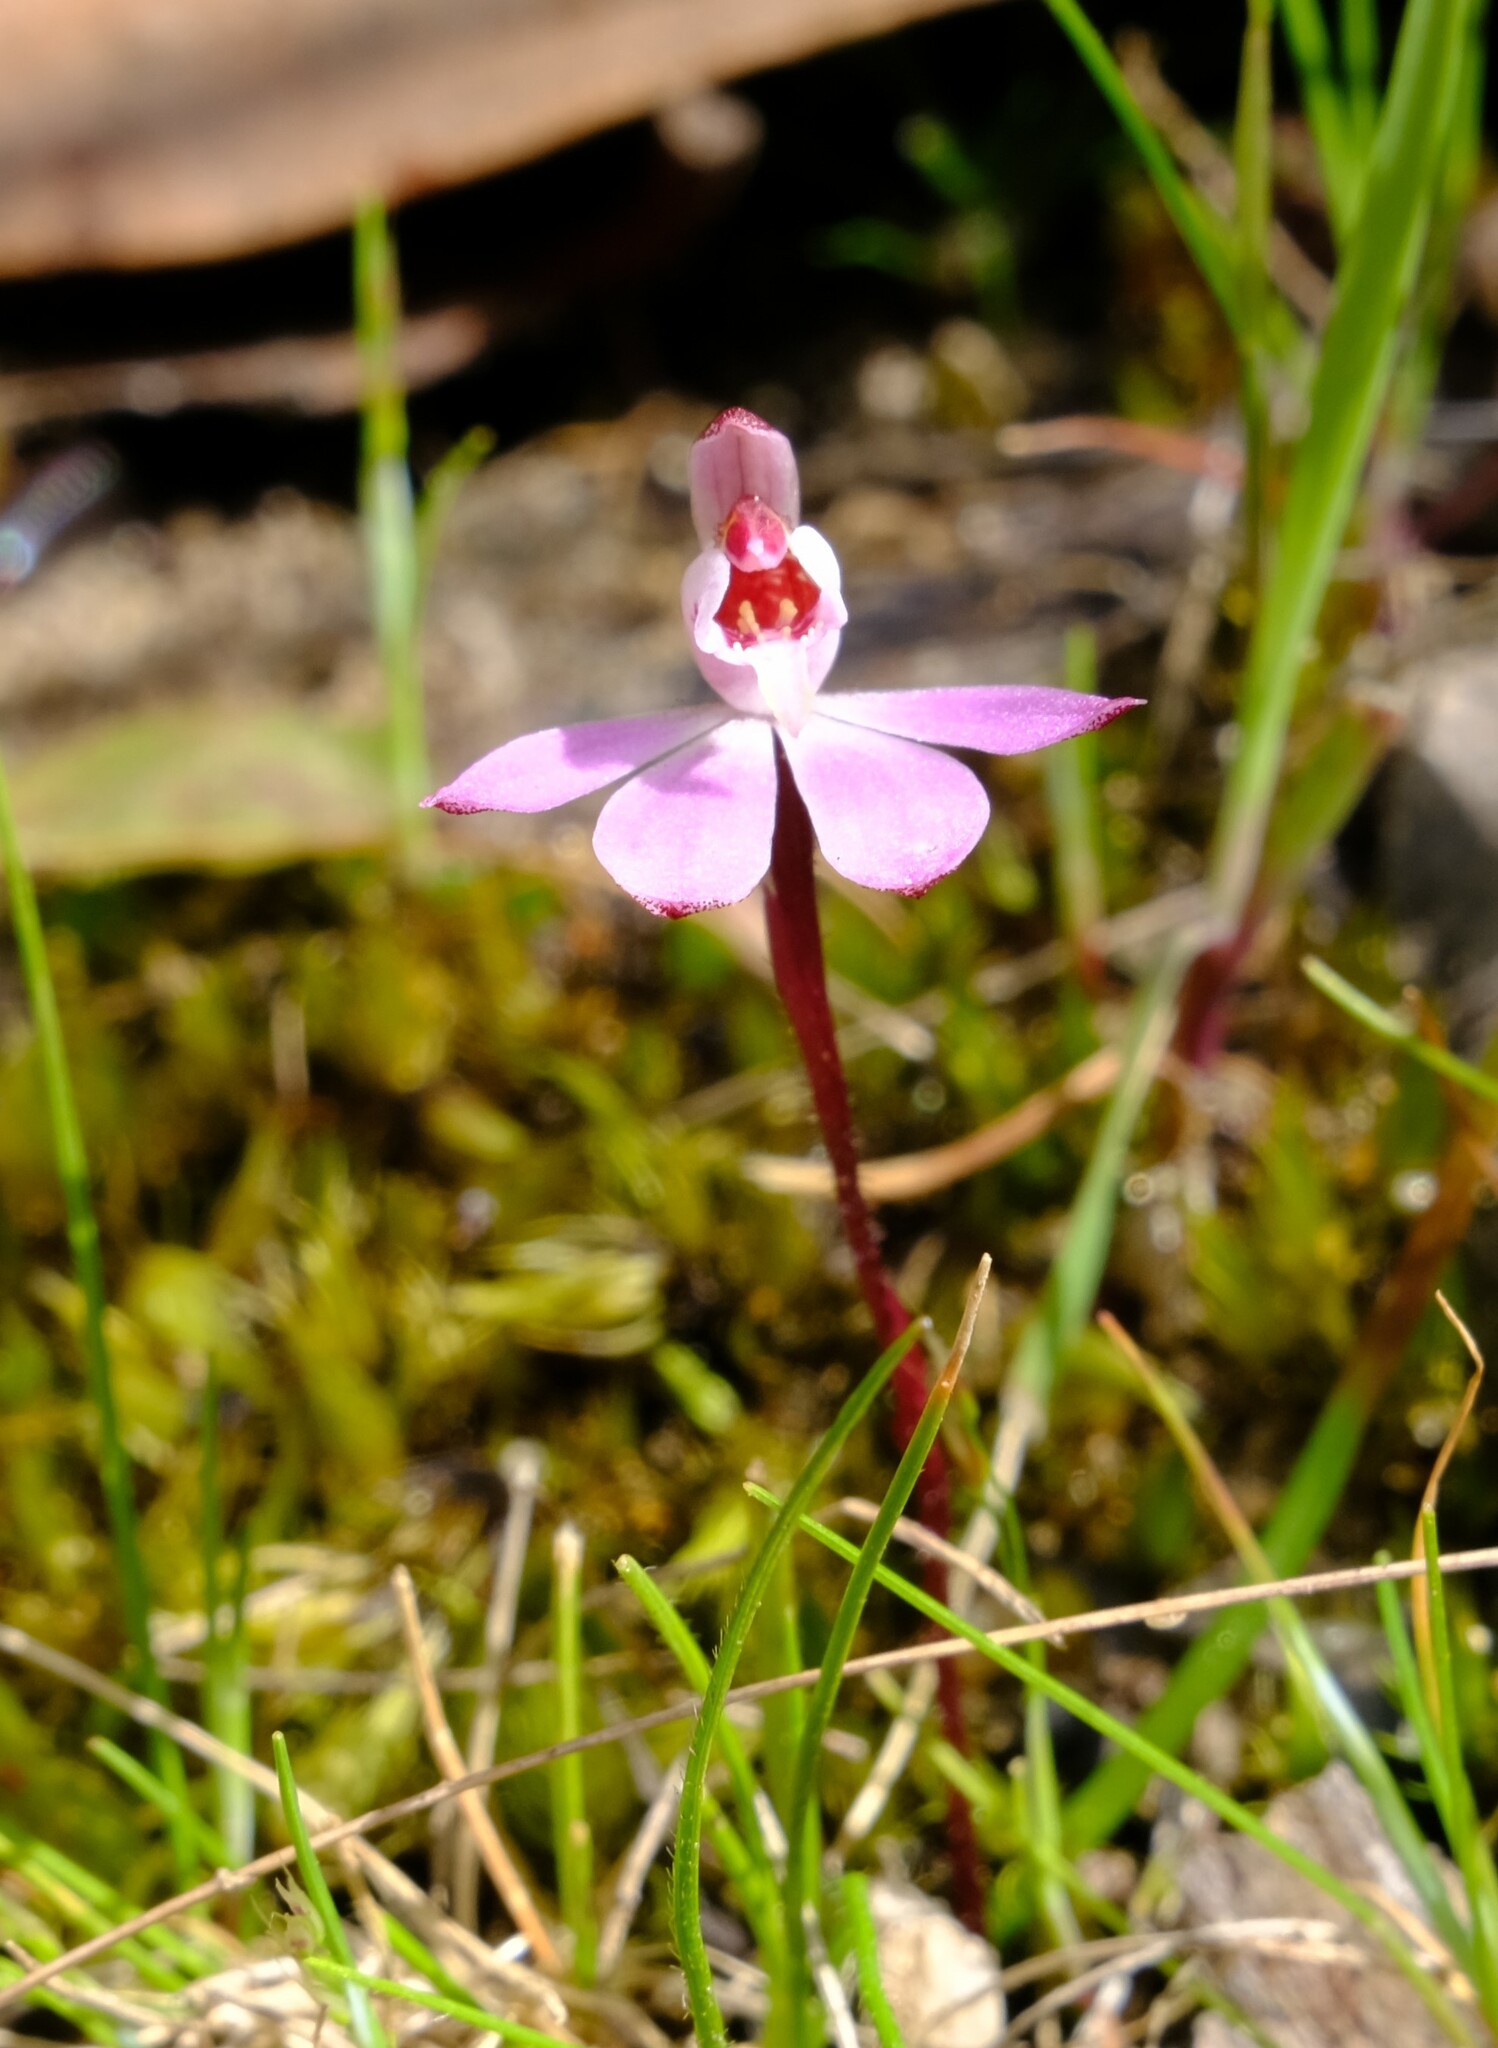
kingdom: Plantae
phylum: Tracheophyta
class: Liliopsida
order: Asparagales
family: Orchidaceae
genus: Caladenia
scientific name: Caladenia pusilla
